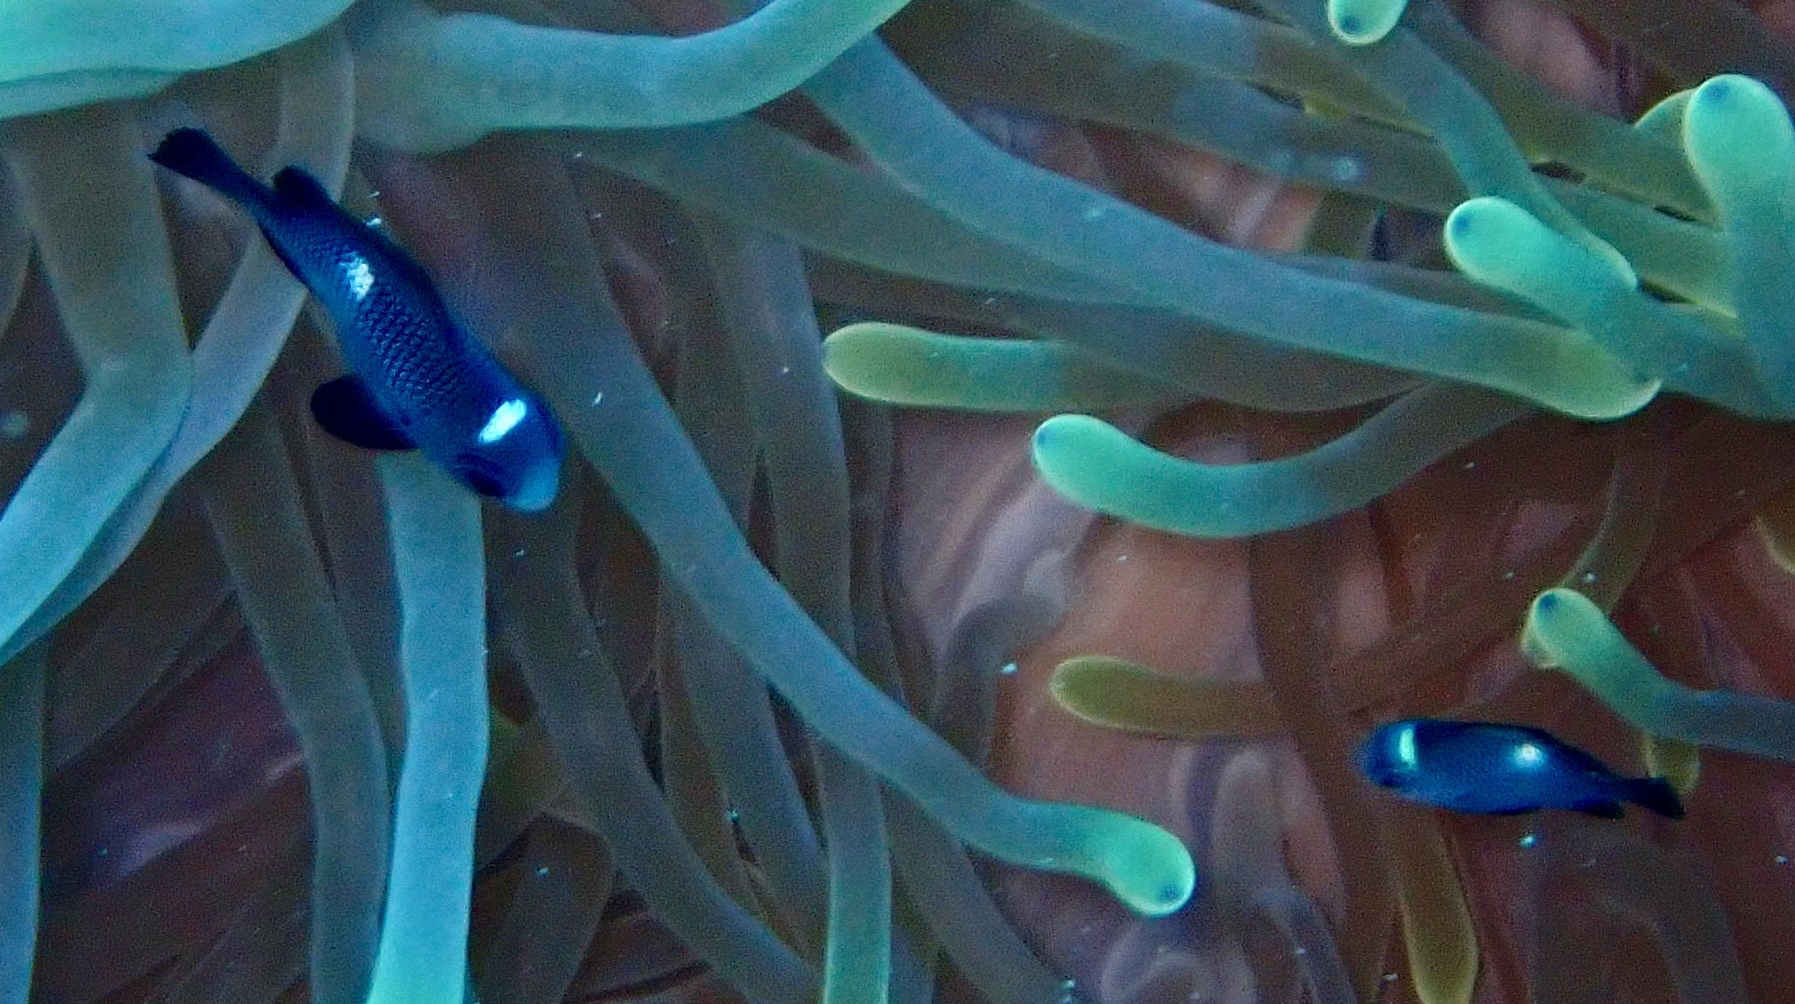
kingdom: Animalia
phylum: Chordata
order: Perciformes
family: Pomacentridae
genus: Dascyllus
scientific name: Dascyllus trimaculatus
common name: Threespot dascyllus
